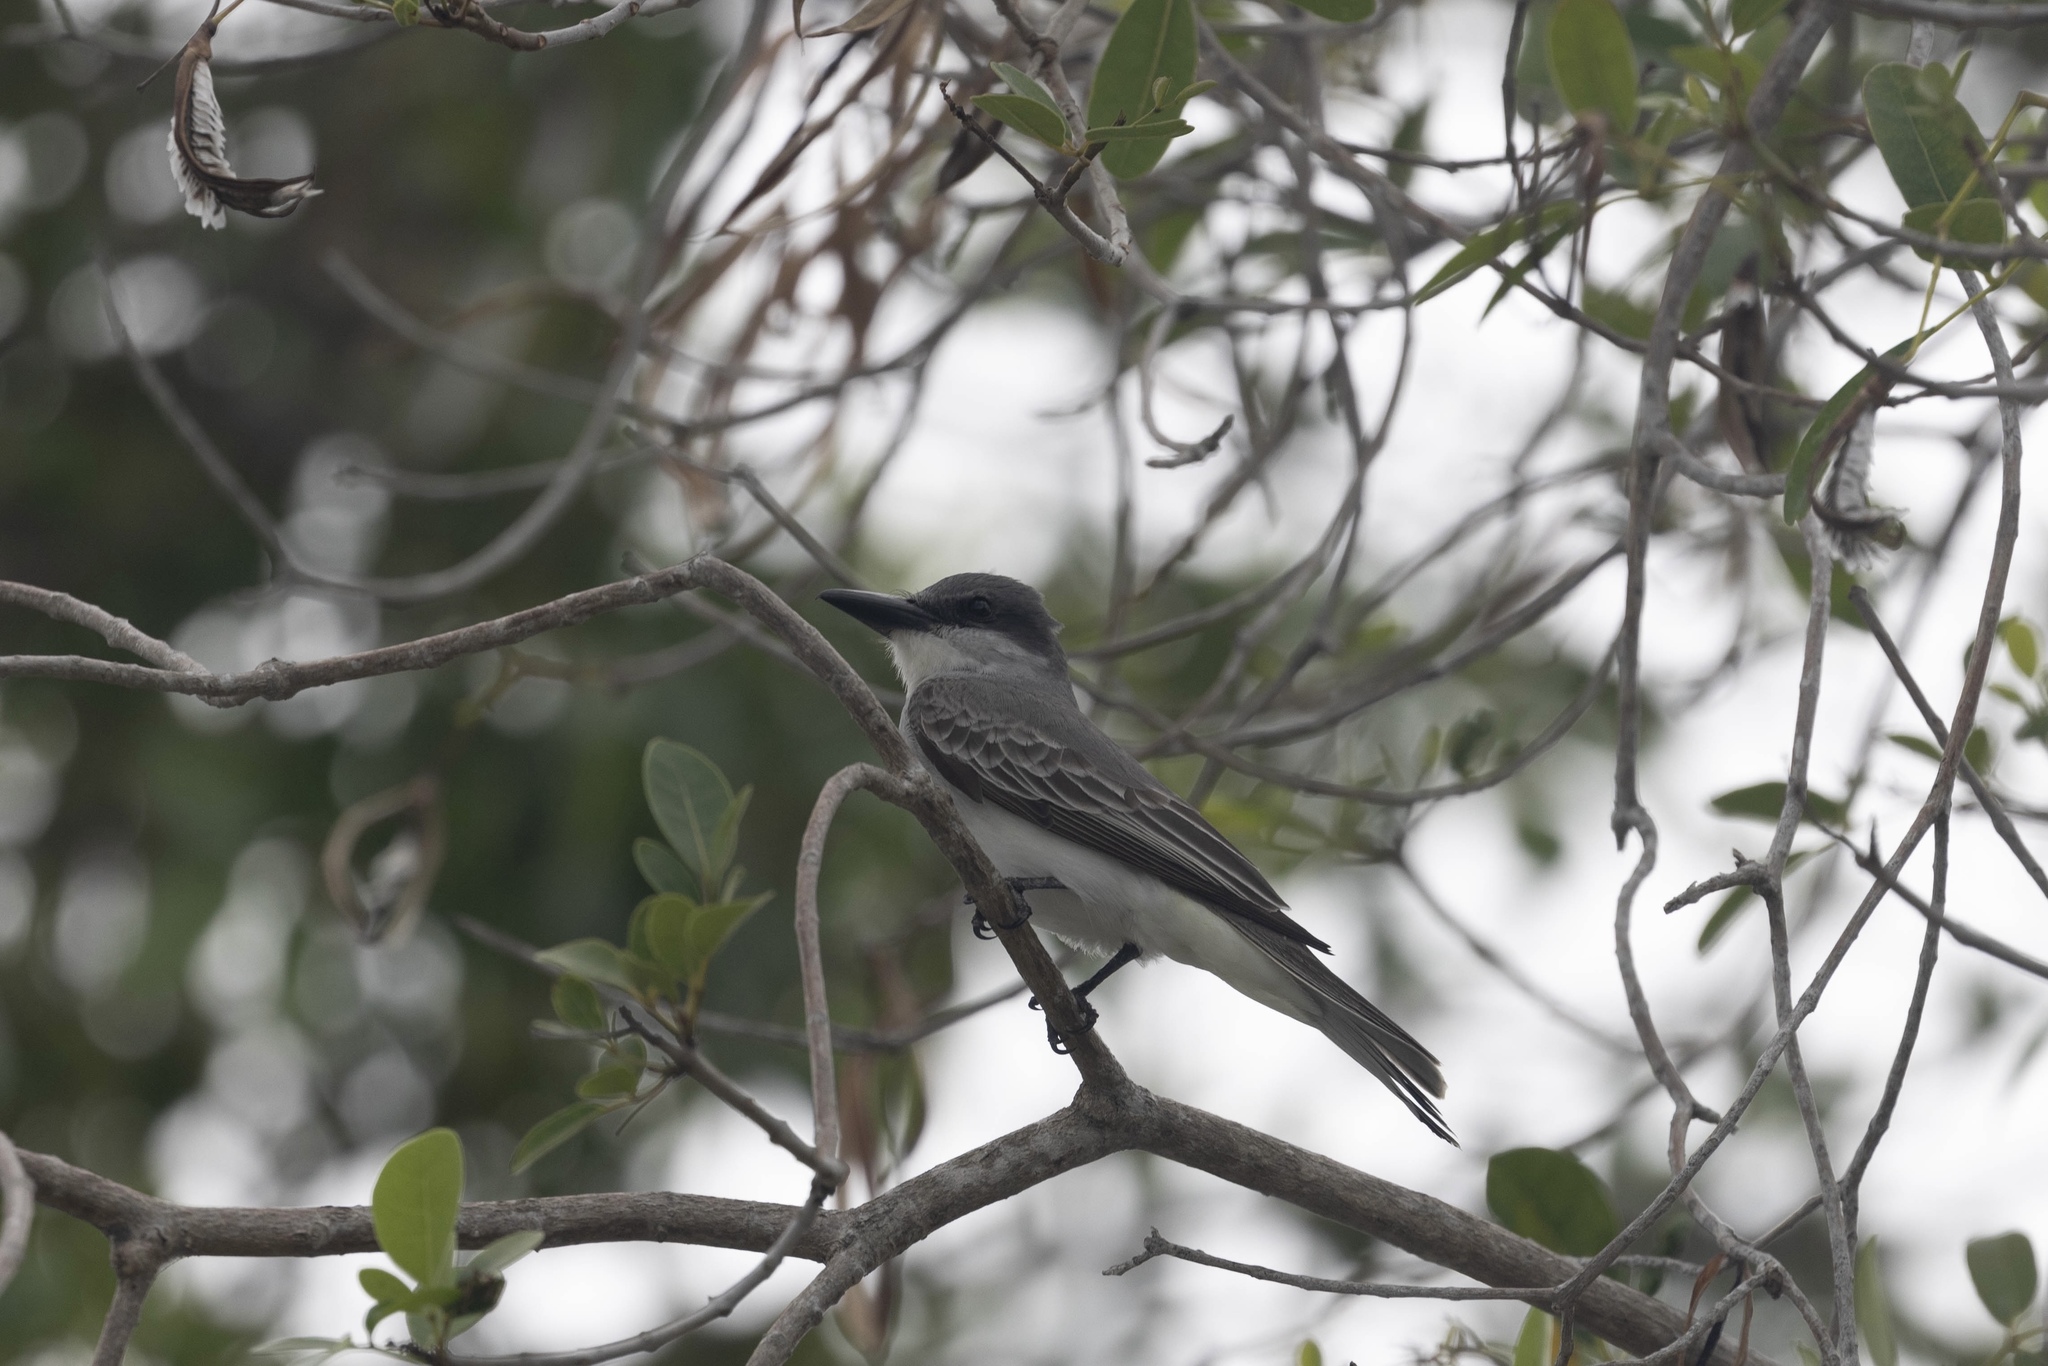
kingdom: Animalia
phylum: Chordata
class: Aves
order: Passeriformes
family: Tyrannidae
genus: Tyrannus
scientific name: Tyrannus dominicensis
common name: Gray kingbird
